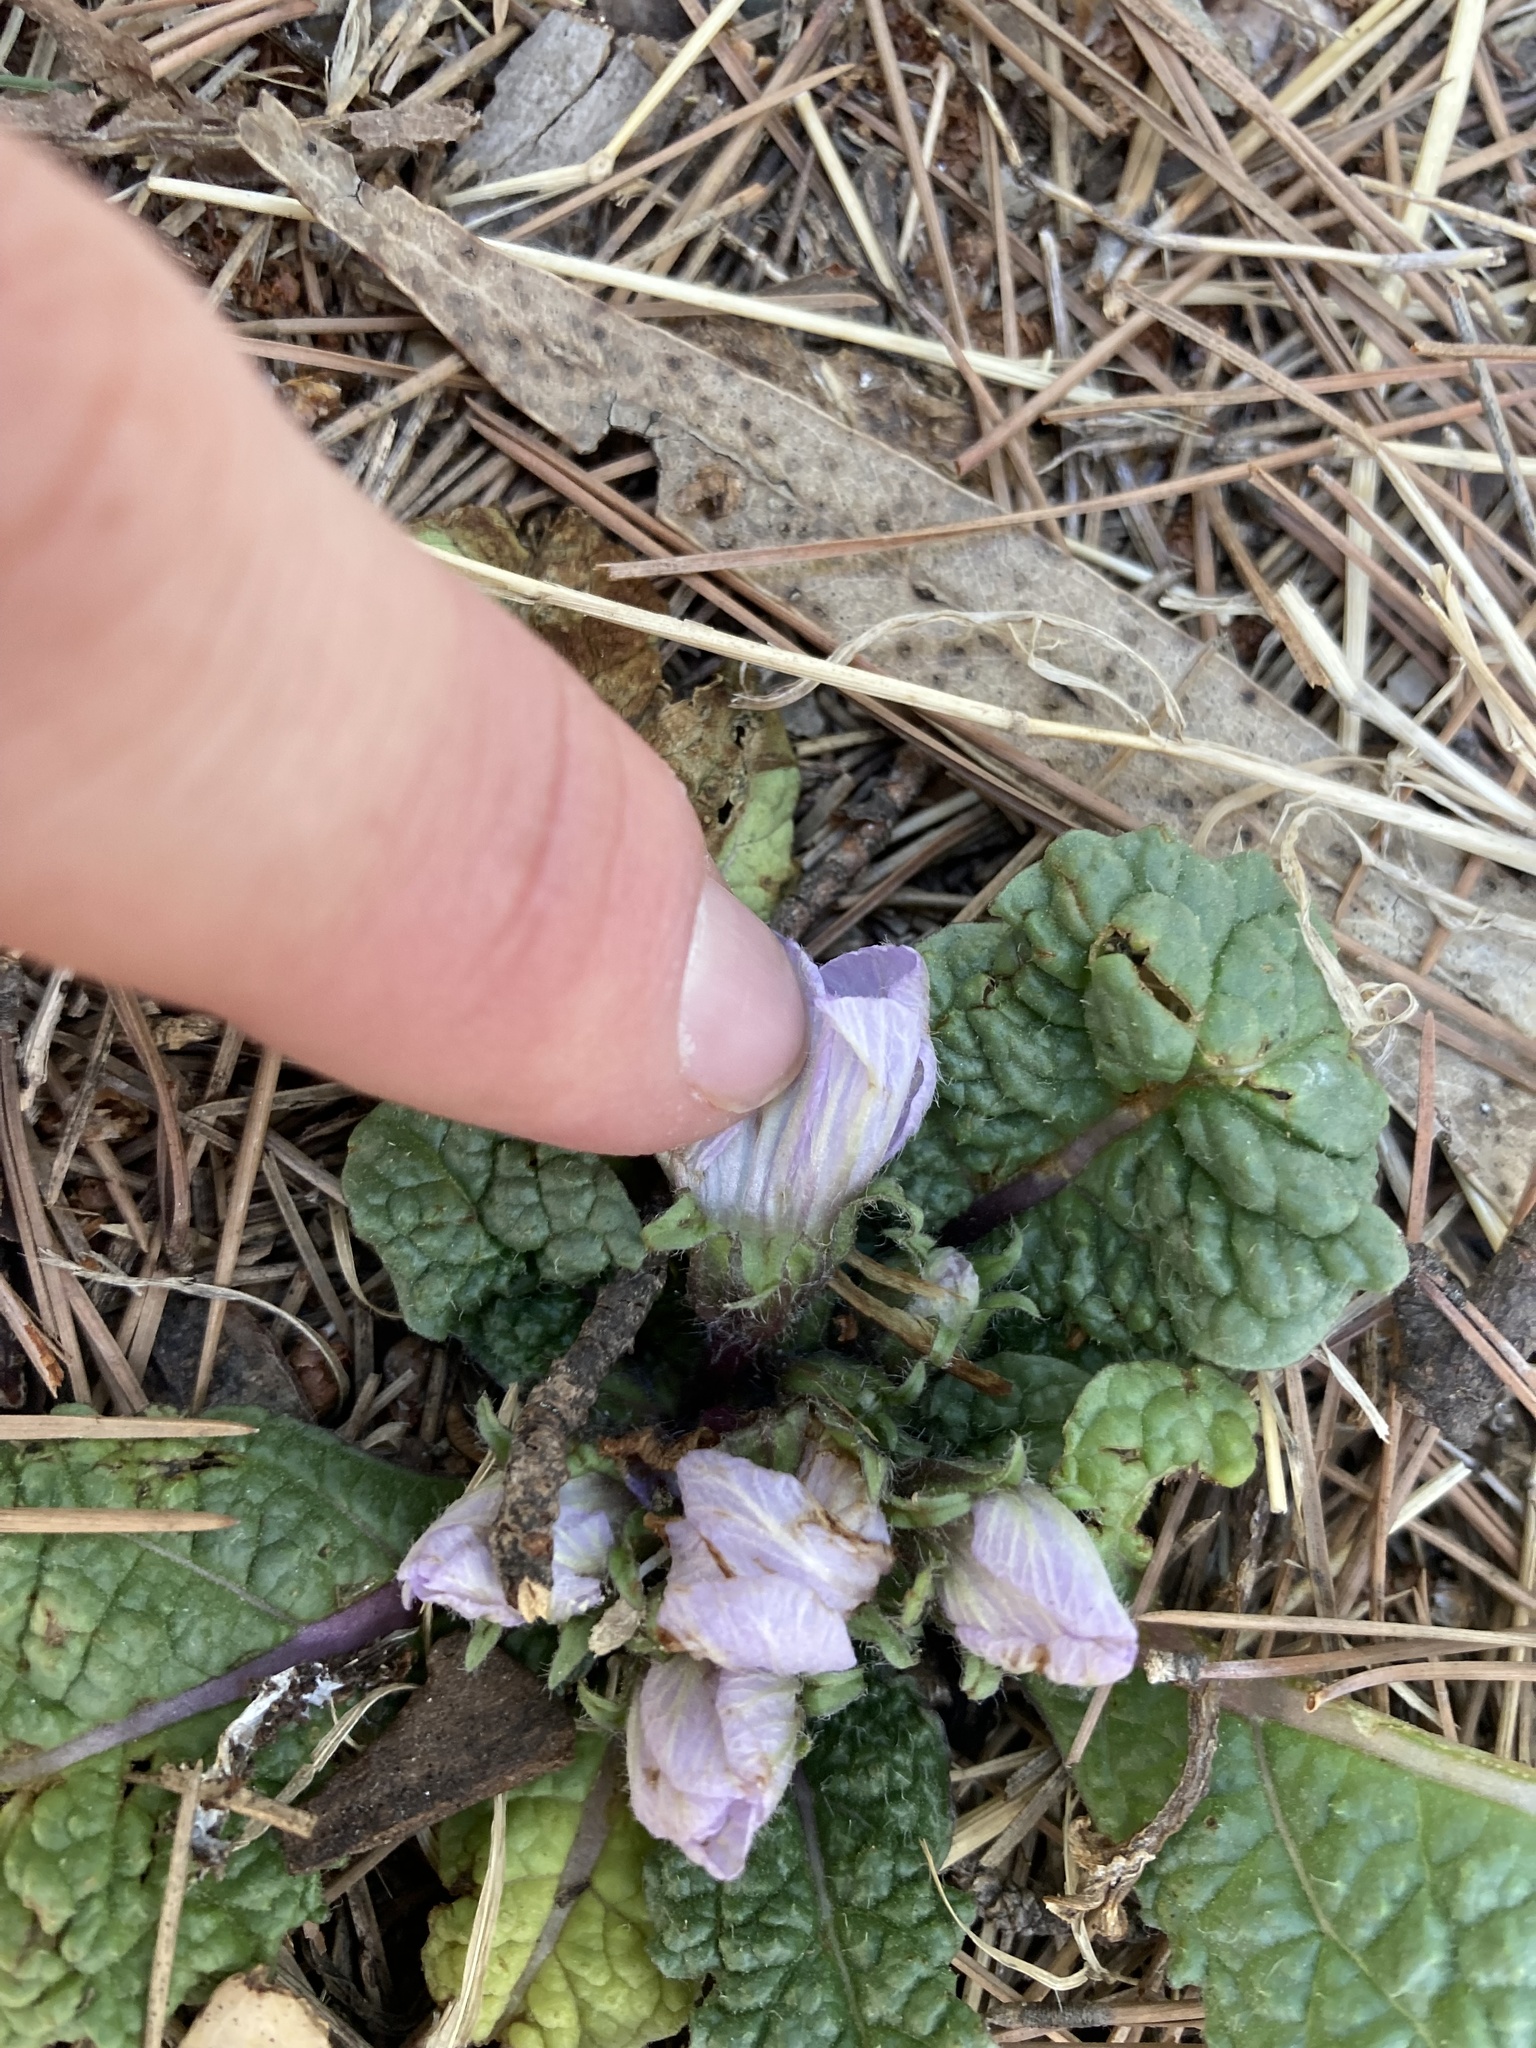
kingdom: Plantae
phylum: Tracheophyta
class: Magnoliopsida
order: Solanales
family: Solanaceae
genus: Mandragora
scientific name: Mandragora officinarum
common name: Mandrake
